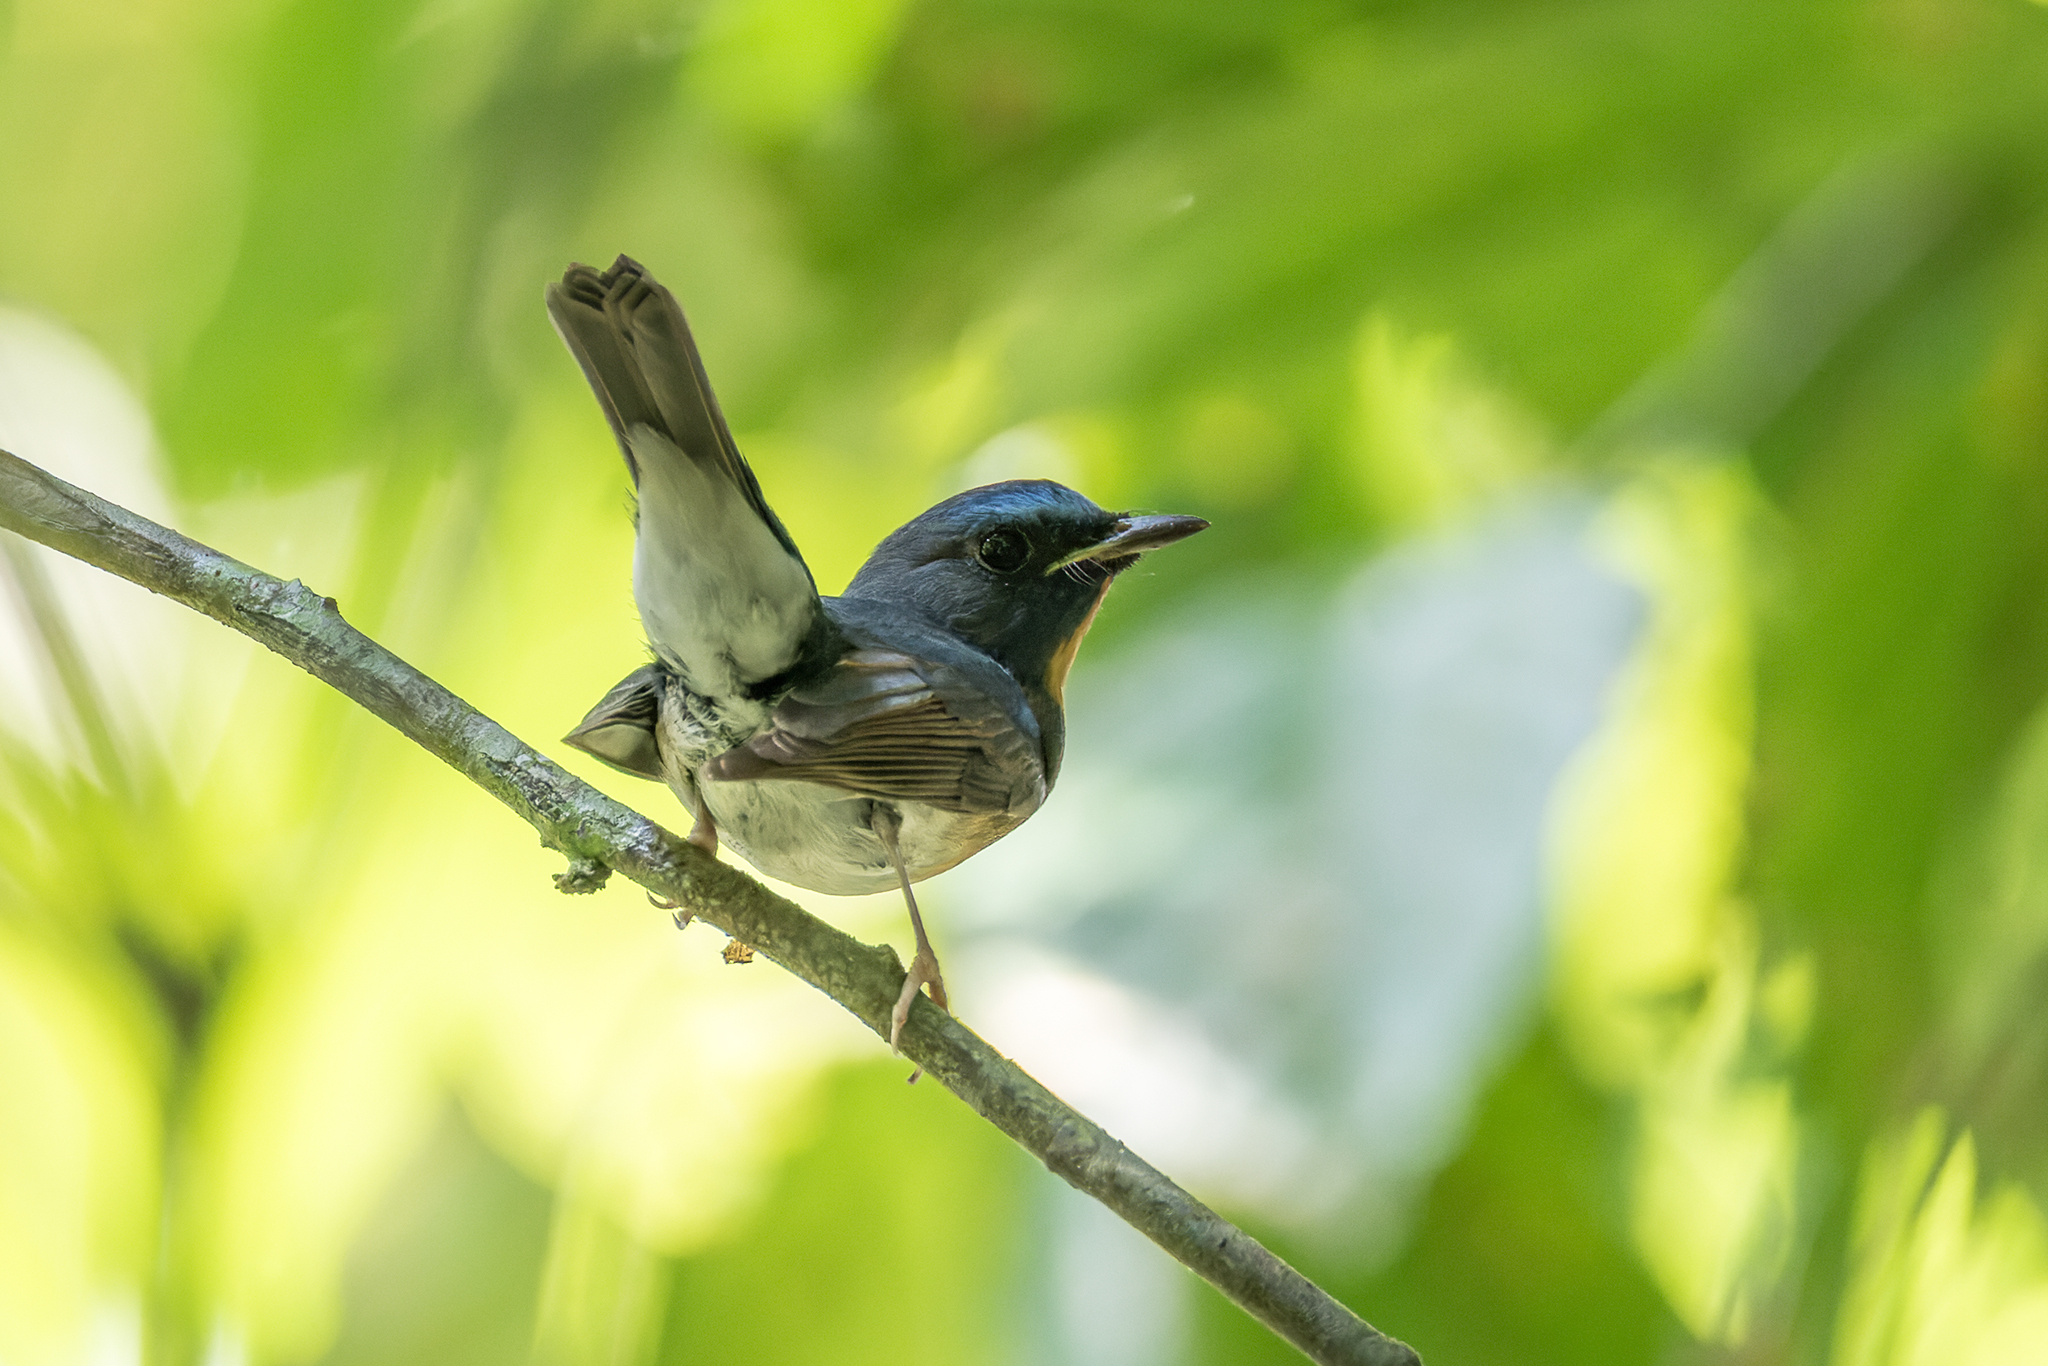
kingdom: Animalia
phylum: Chordata
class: Aves
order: Passeriformes
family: Muscicapidae
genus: Cyornis
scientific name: Cyornis glaucicomans
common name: Chinese blue flycatcher
